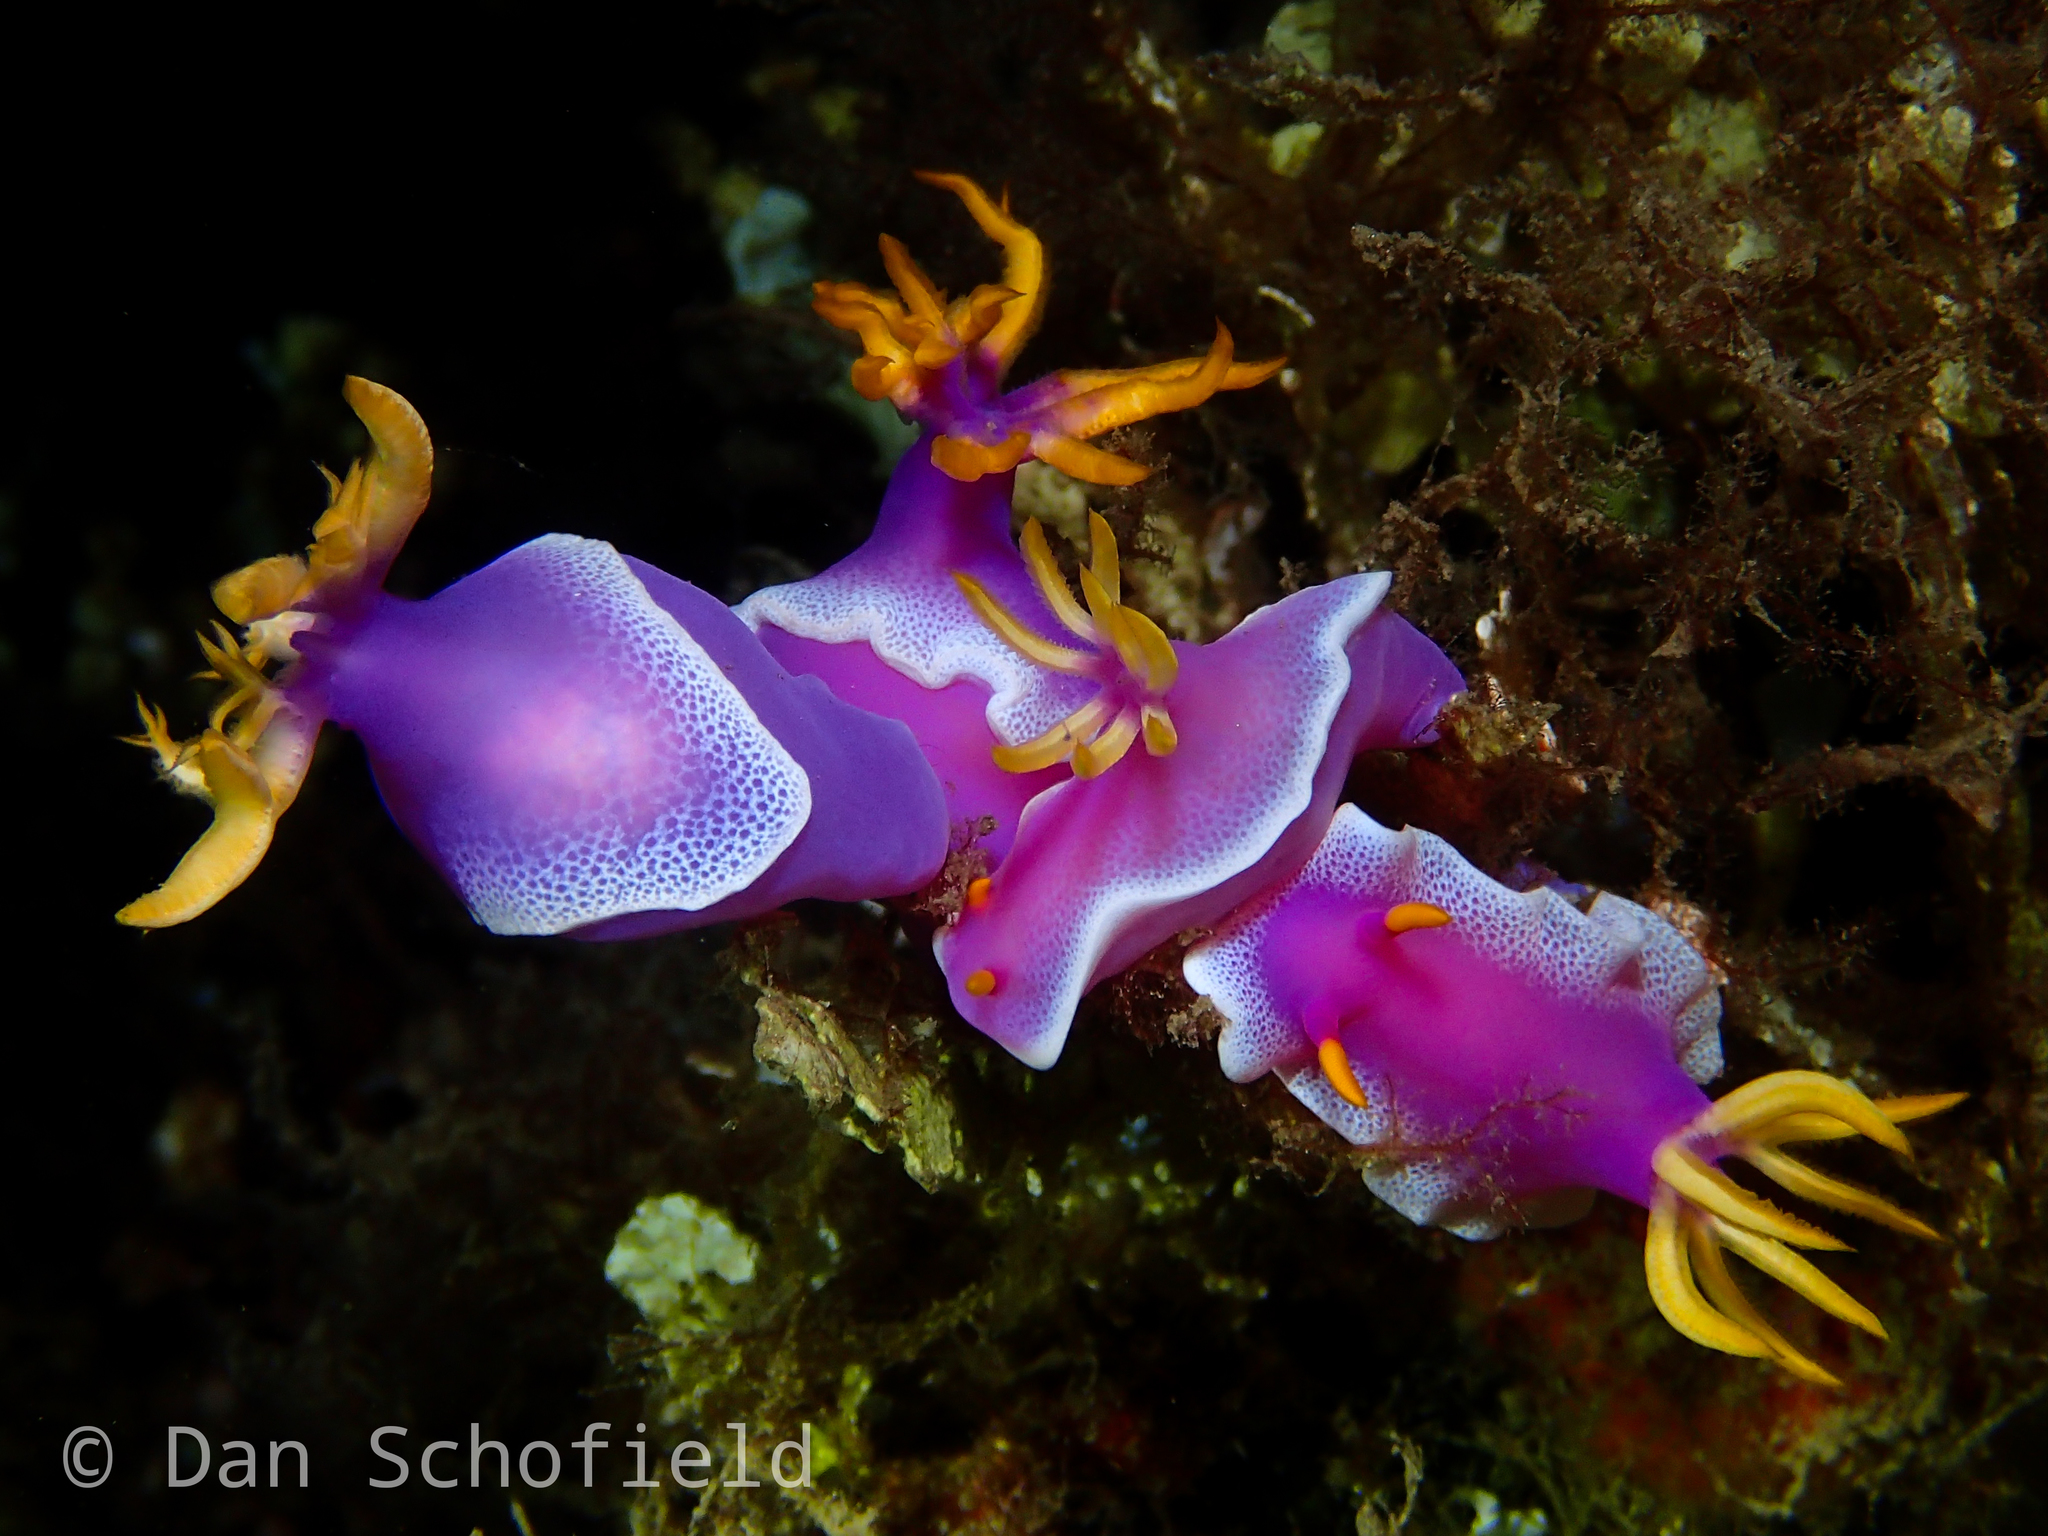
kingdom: Animalia
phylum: Mollusca
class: Gastropoda
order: Nudibranchia
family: Chromodorididae
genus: Hypselodoris
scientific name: Hypselodoris apolegma
